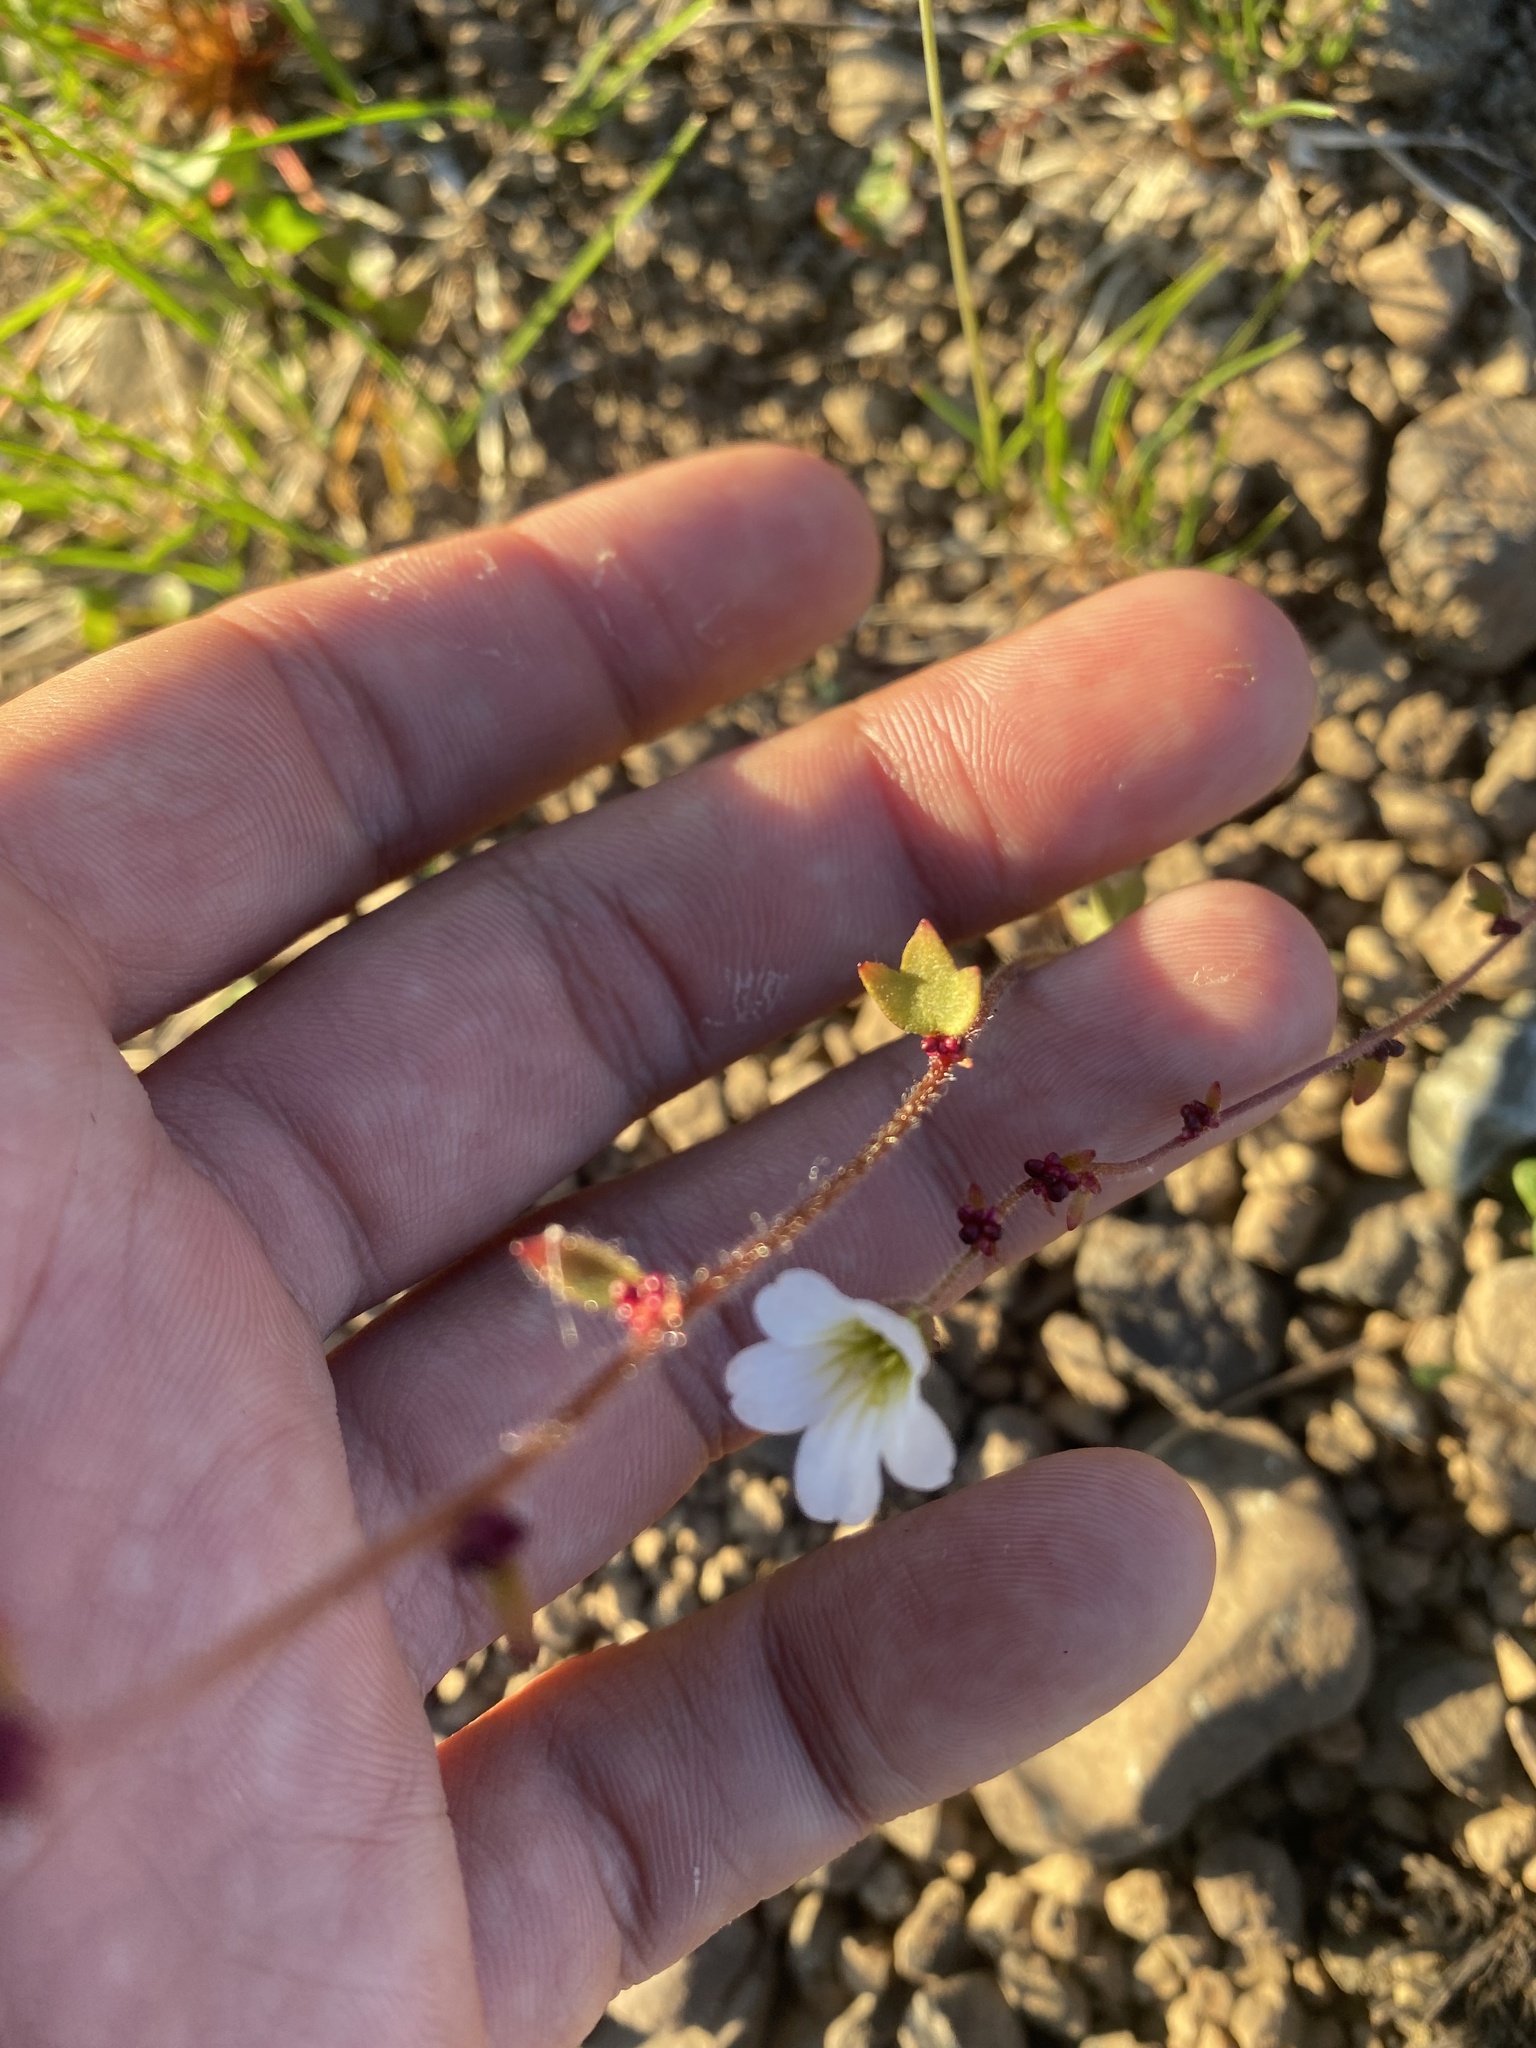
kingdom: Plantae
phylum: Tracheophyta
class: Magnoliopsida
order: Saxifragales
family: Saxifragaceae
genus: Saxifraga
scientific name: Saxifraga cernua
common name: Drooping saxifrage
